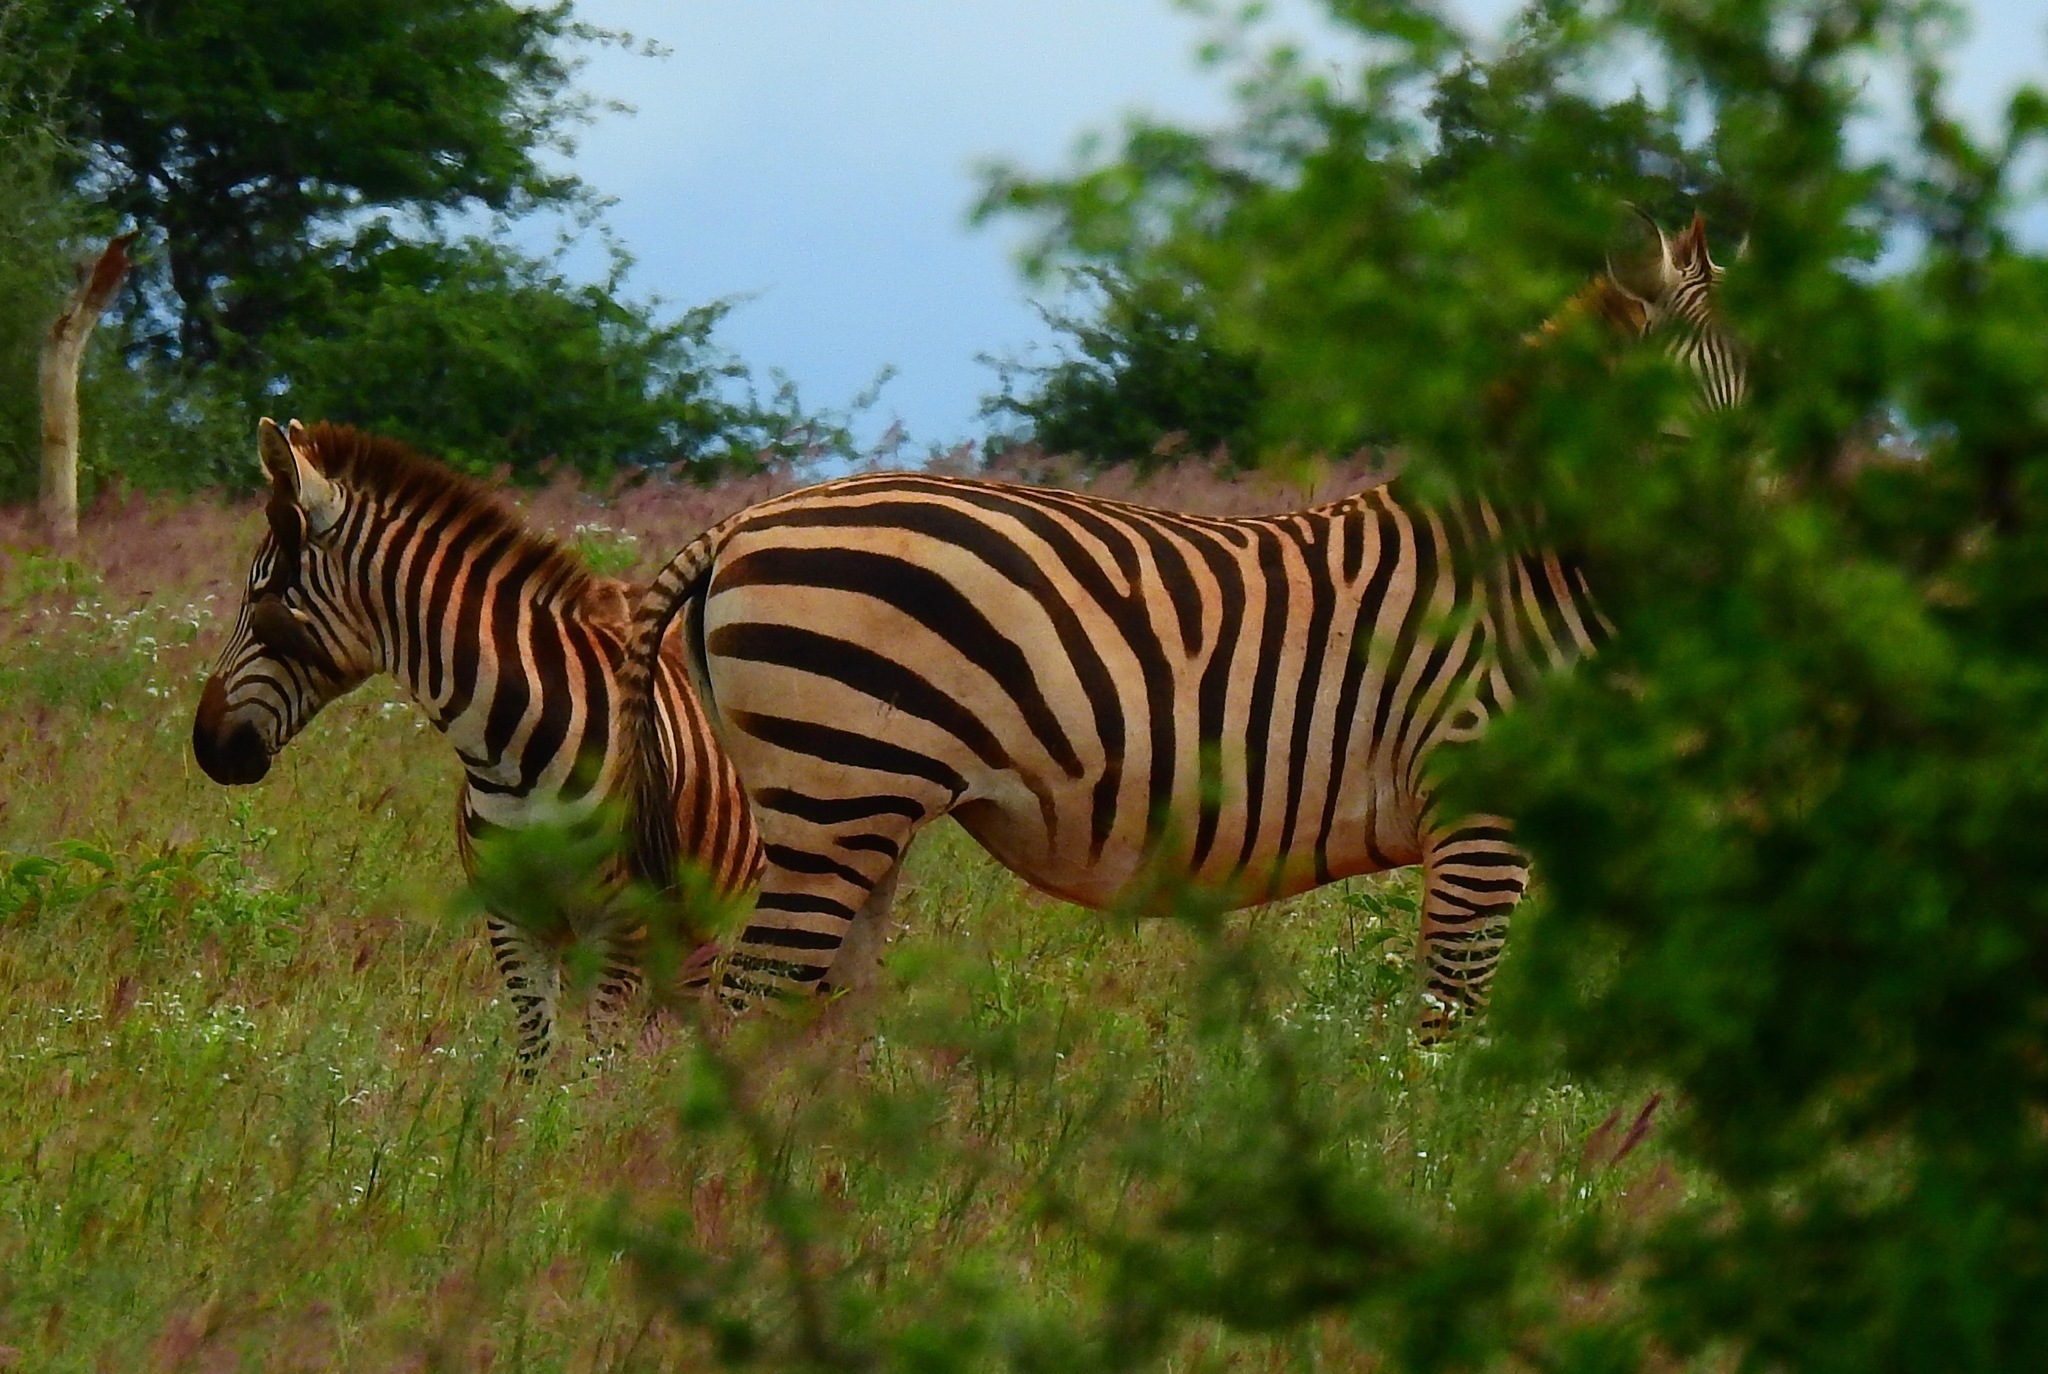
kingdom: Animalia
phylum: Chordata
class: Mammalia
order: Perissodactyla
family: Equidae
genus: Equus
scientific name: Equus quagga
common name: Plains zebra
